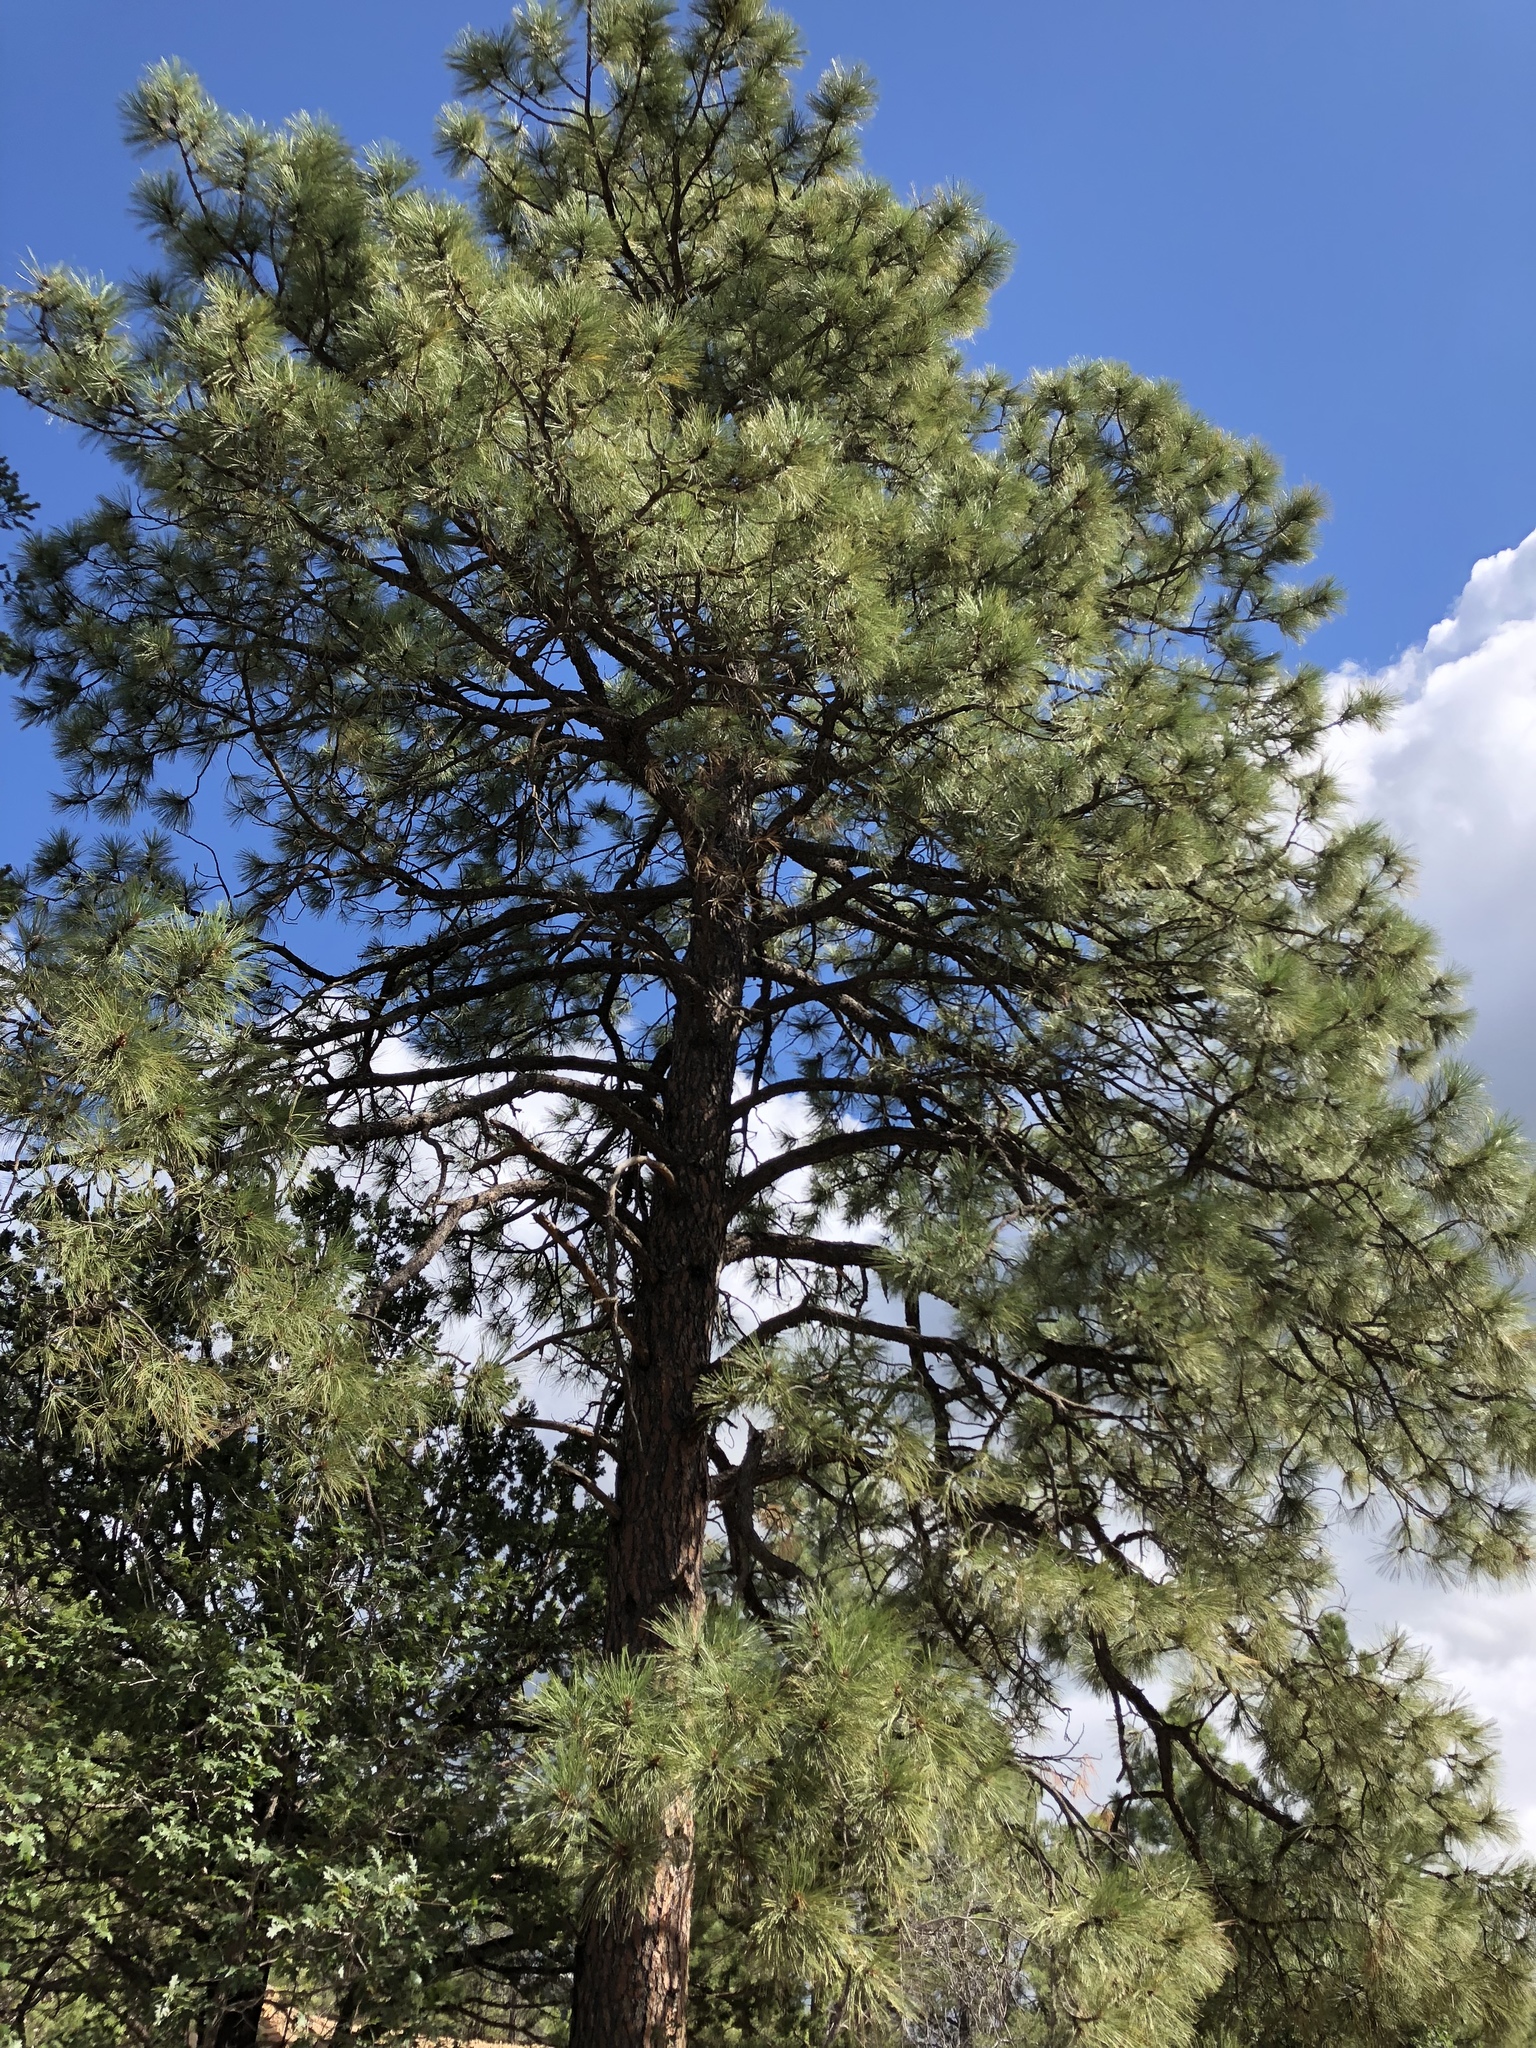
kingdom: Plantae
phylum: Tracheophyta
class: Pinopsida
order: Pinales
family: Pinaceae
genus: Pinus
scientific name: Pinus ponderosa
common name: Western yellow-pine
